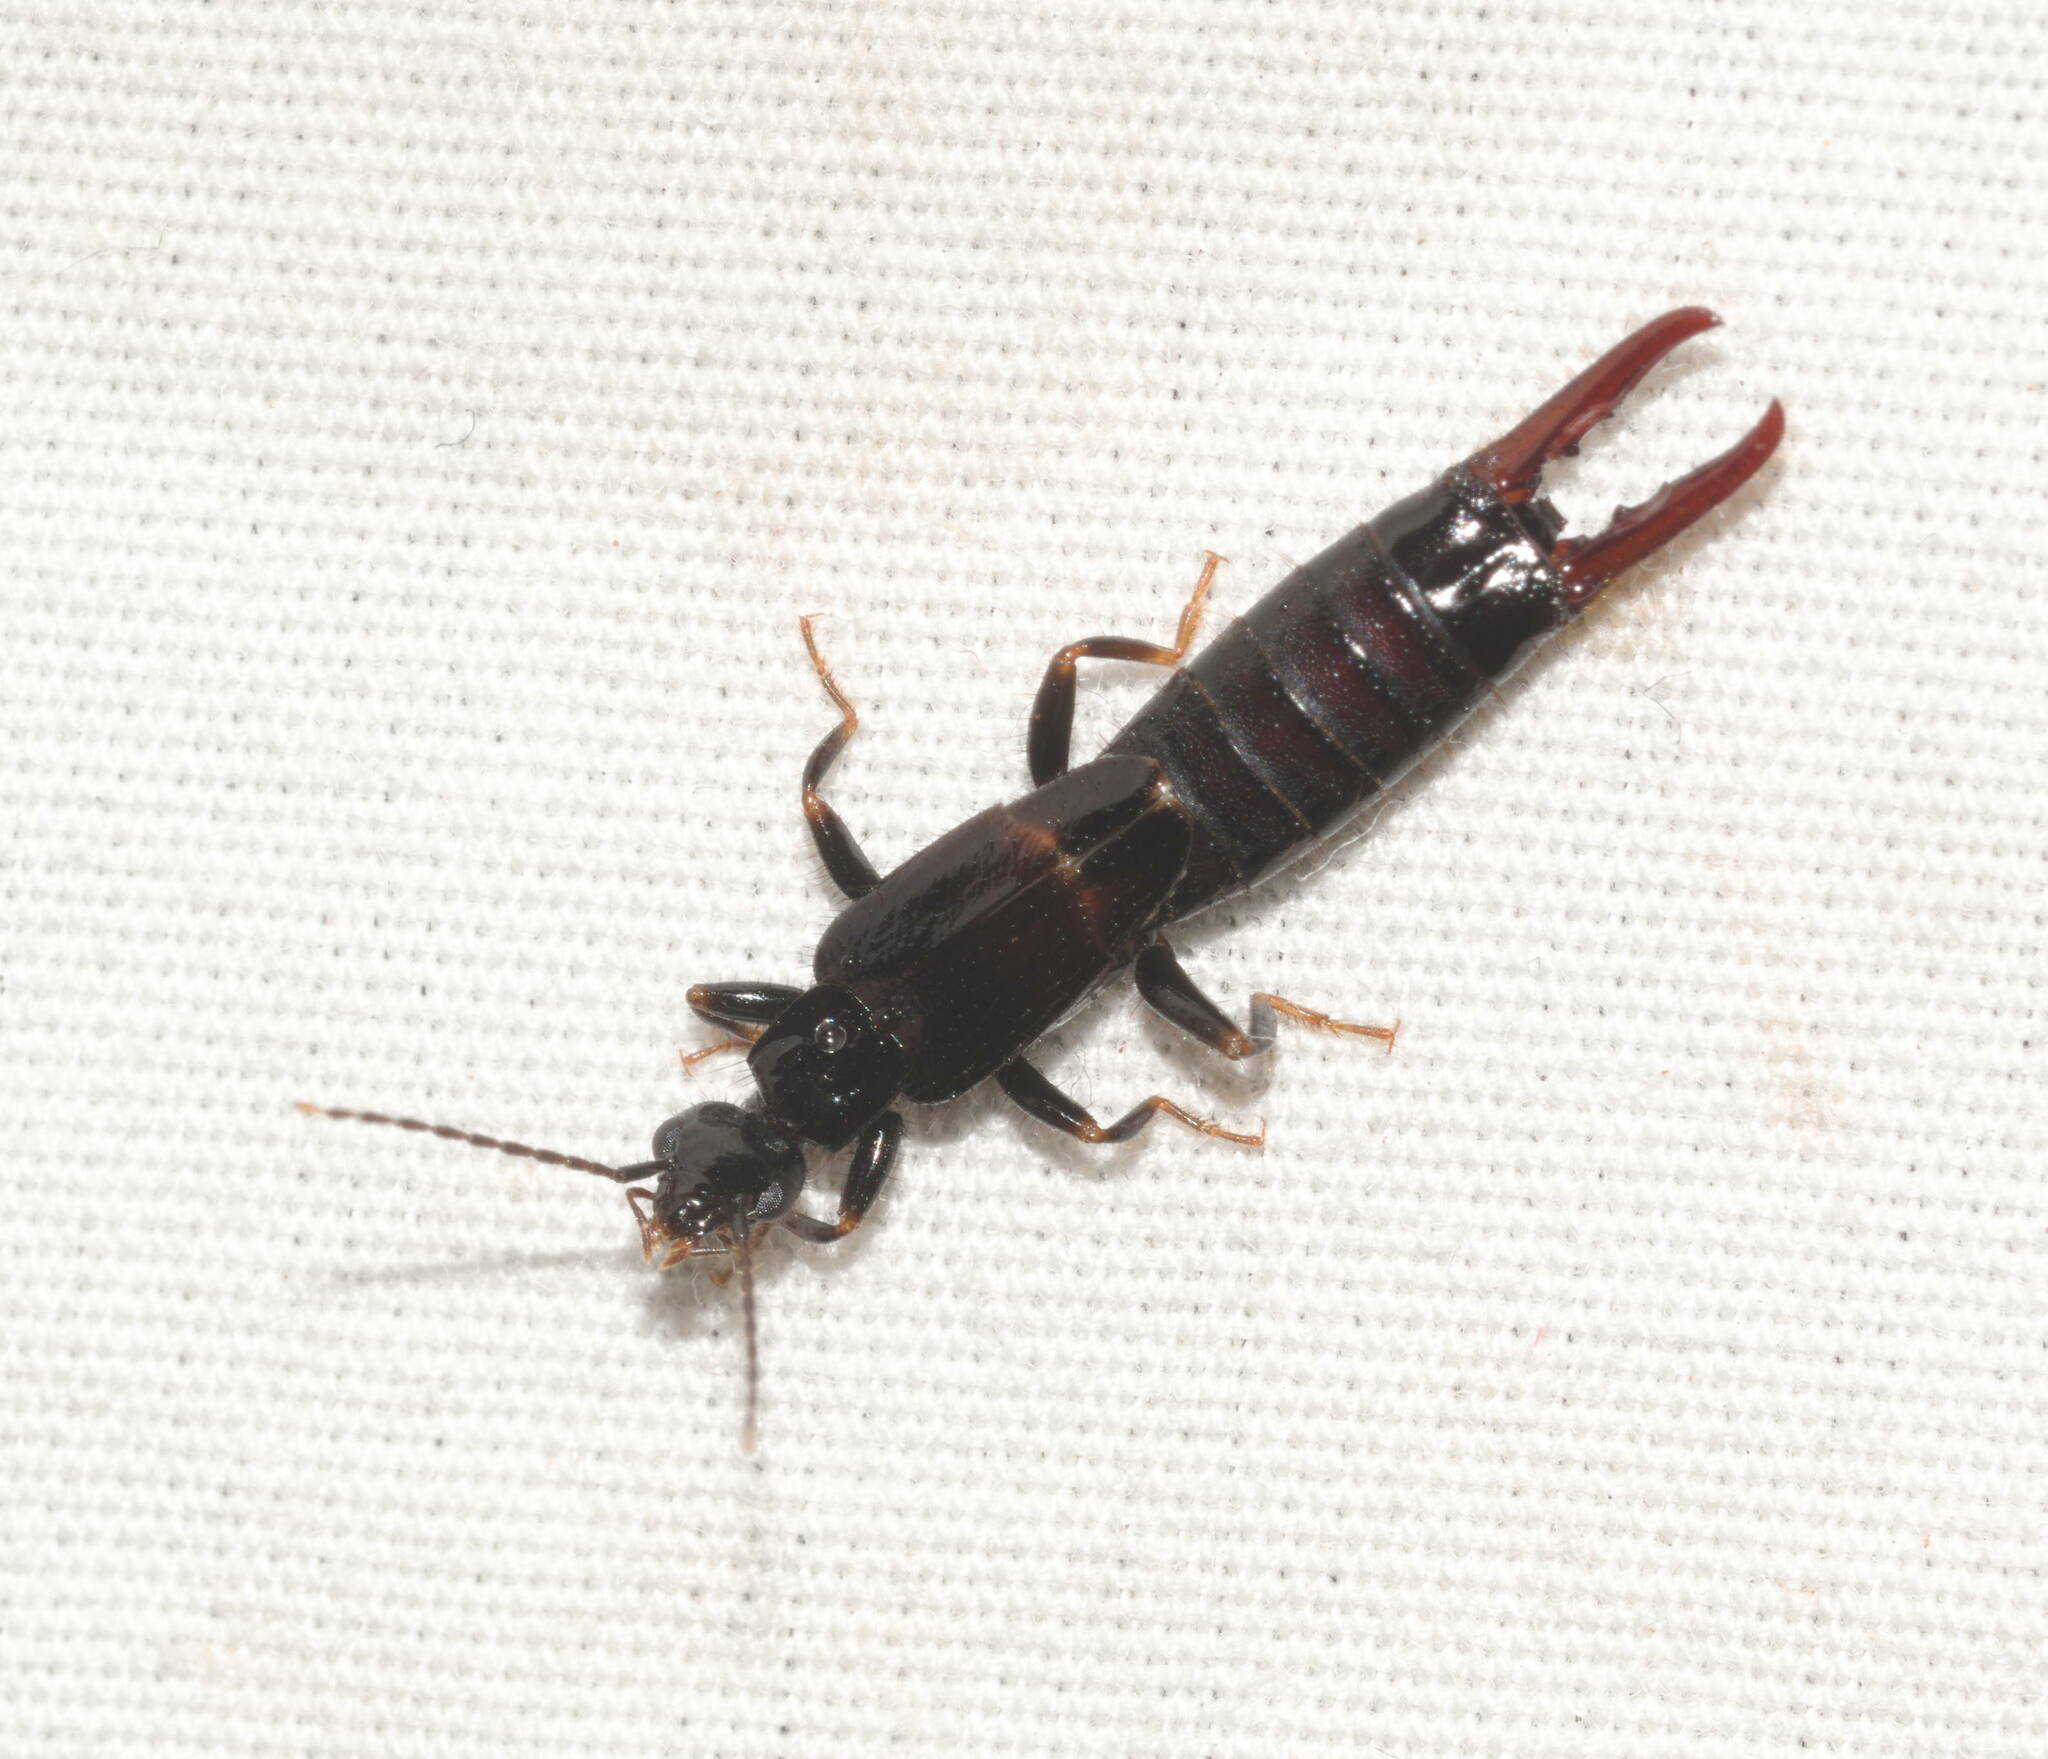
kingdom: Animalia
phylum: Arthropoda
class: Insecta
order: Dermaptera
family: Spongiphoridae
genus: Sphingolabis
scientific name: Sphingolabis hawaiiensis
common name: Earwig
